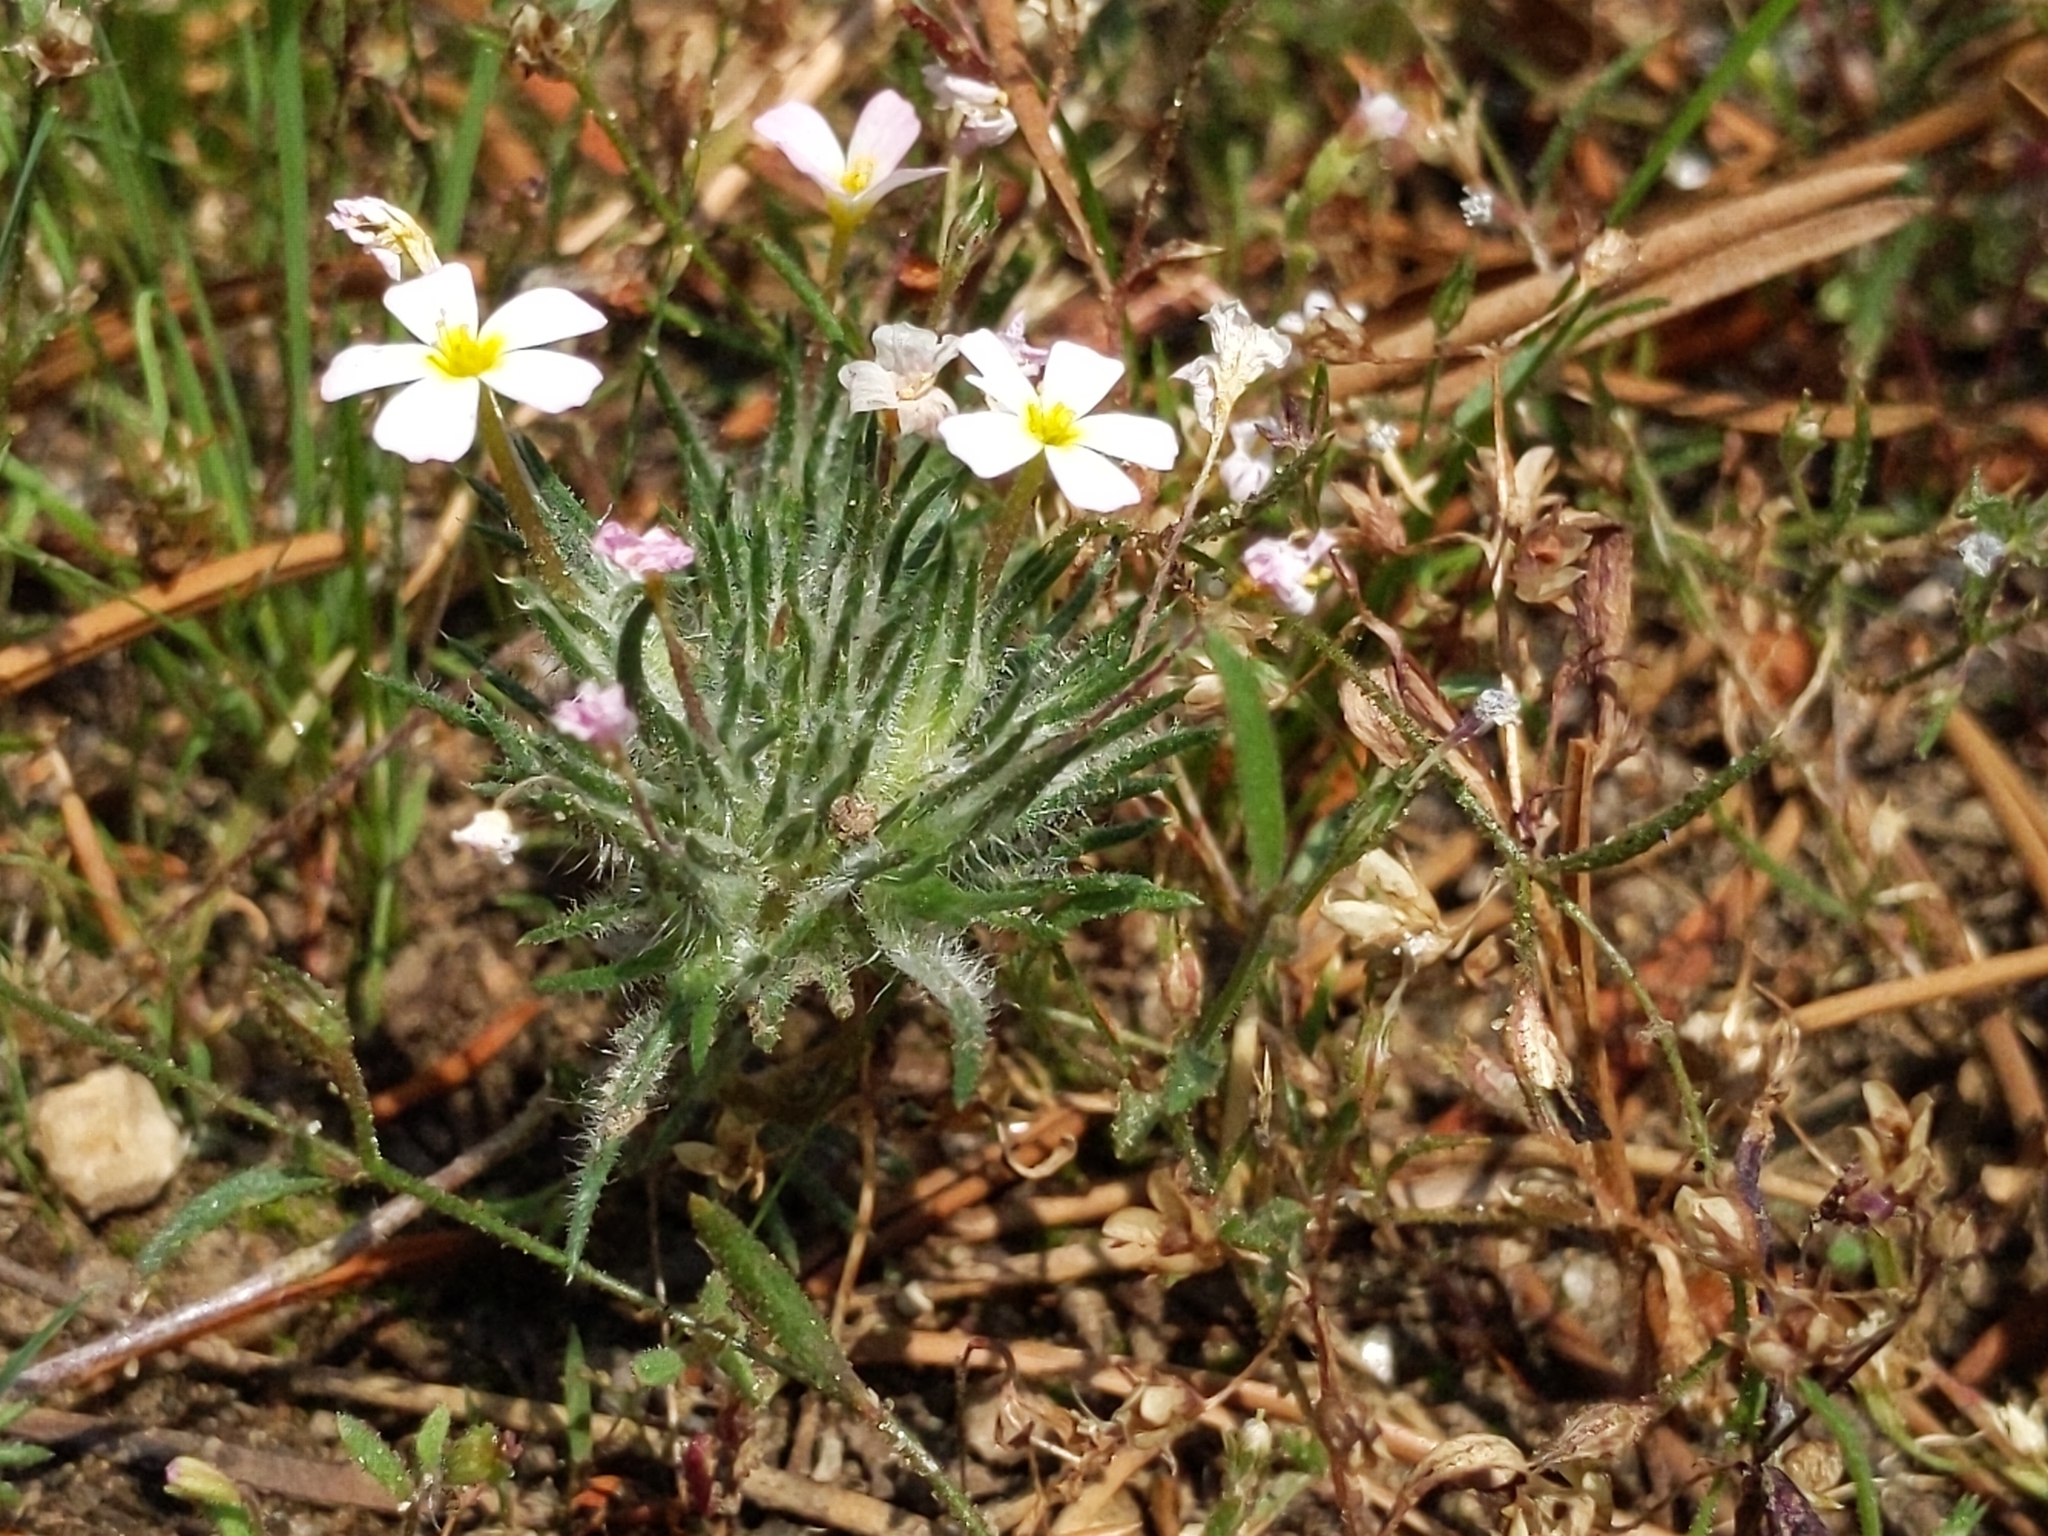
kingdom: Plantae
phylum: Tracheophyta
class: Magnoliopsida
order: Ericales
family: Polemoniaceae
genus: Leptosiphon
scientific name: Leptosiphon ciliatus
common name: Whiskerbrush
